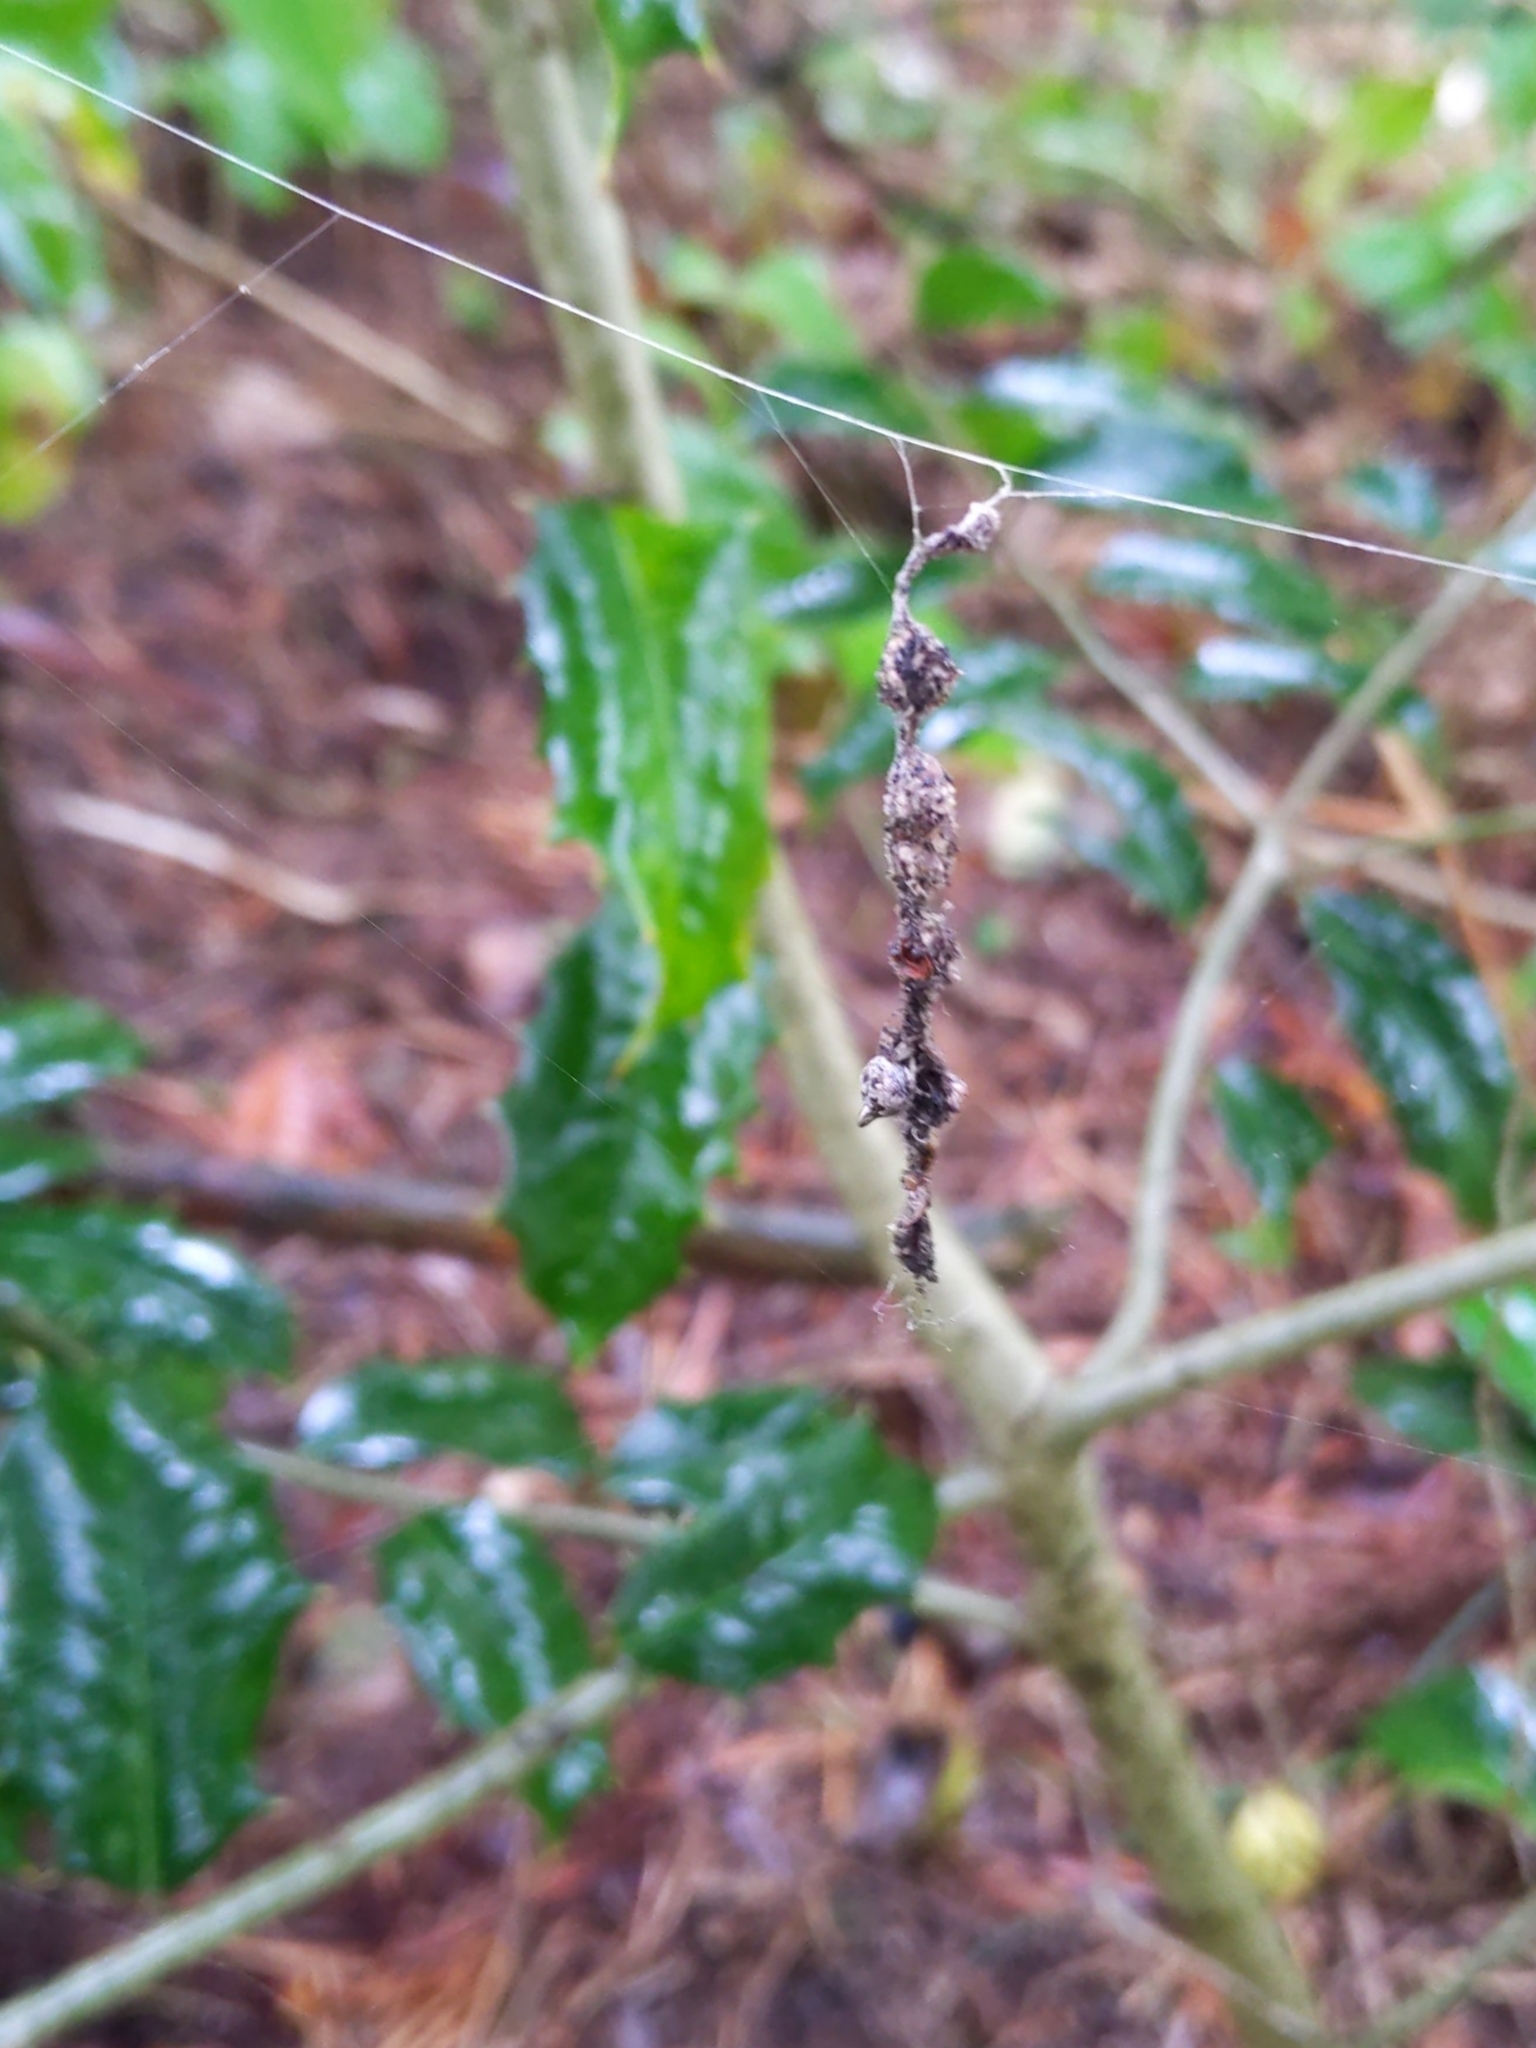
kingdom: Animalia
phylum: Arthropoda
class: Arachnida
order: Araneae
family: Araneidae
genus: Cyclosa
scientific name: Cyclosa turbinata
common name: Orb weavers
